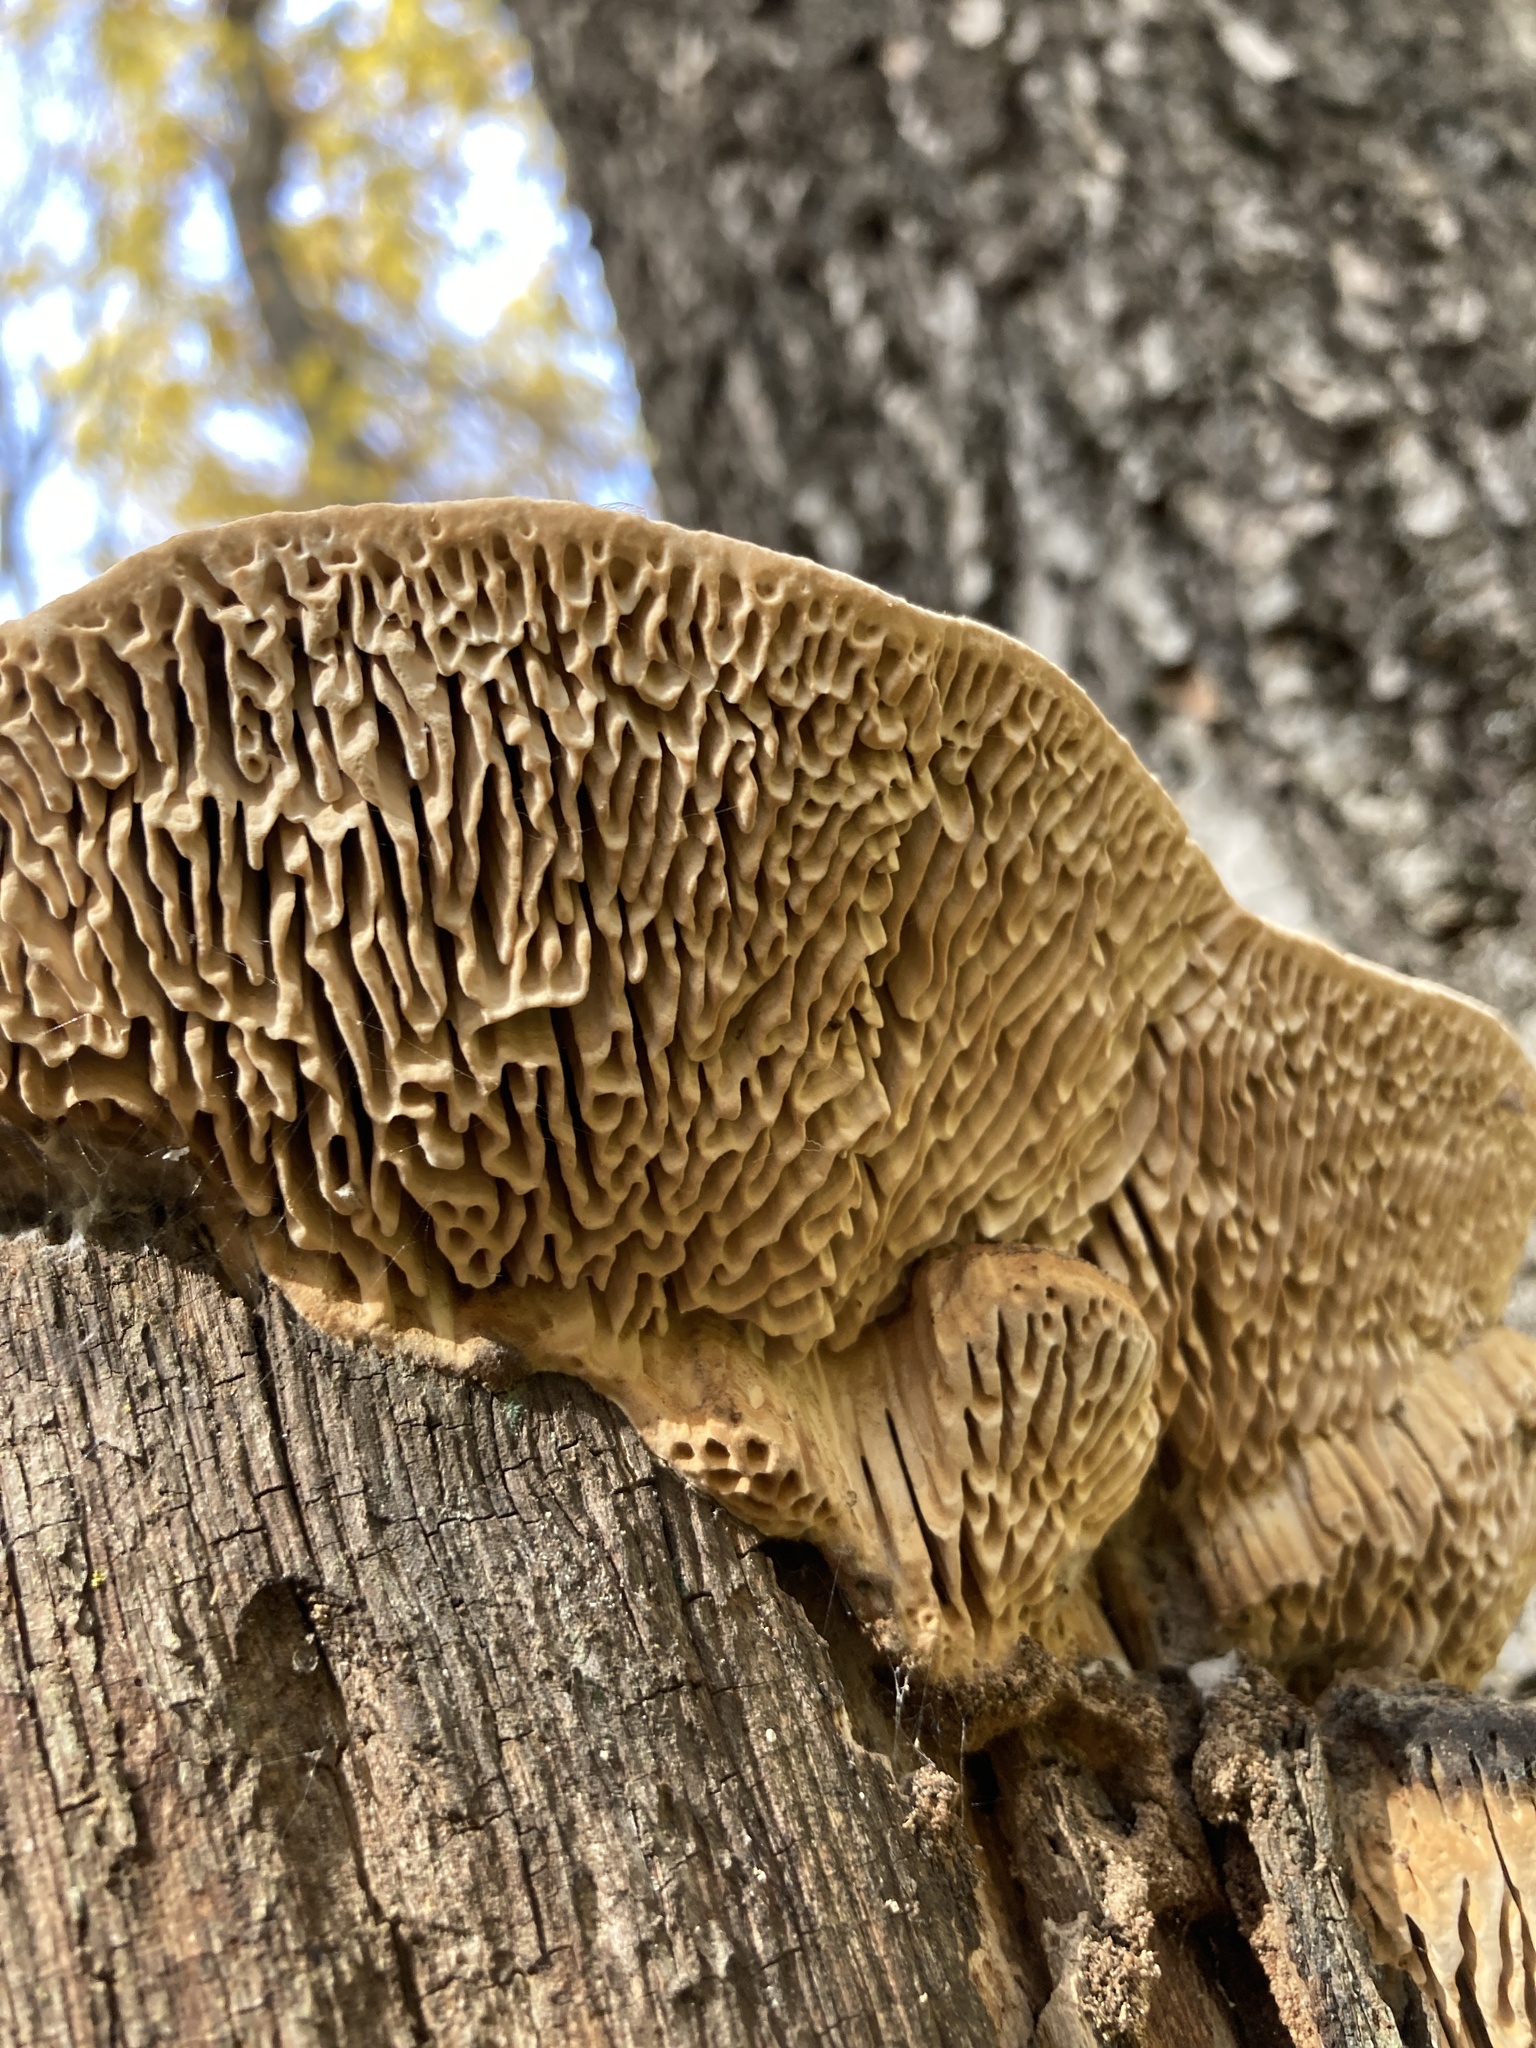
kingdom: Fungi
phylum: Basidiomycota
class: Agaricomycetes
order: Polyporales
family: Fomitopsidaceae
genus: Fomitopsis
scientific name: Fomitopsis
